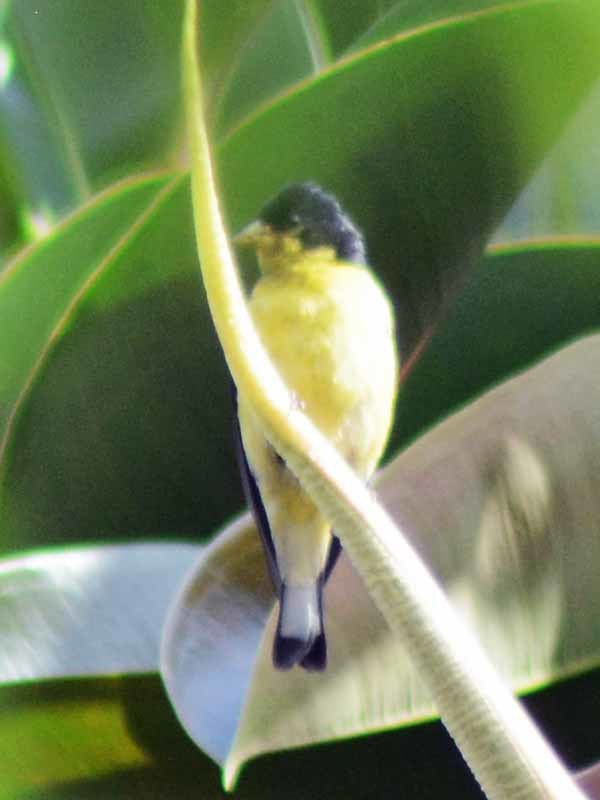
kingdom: Animalia
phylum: Chordata
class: Aves
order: Passeriformes
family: Fringillidae
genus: Spinus
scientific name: Spinus psaltria
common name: Lesser goldfinch
